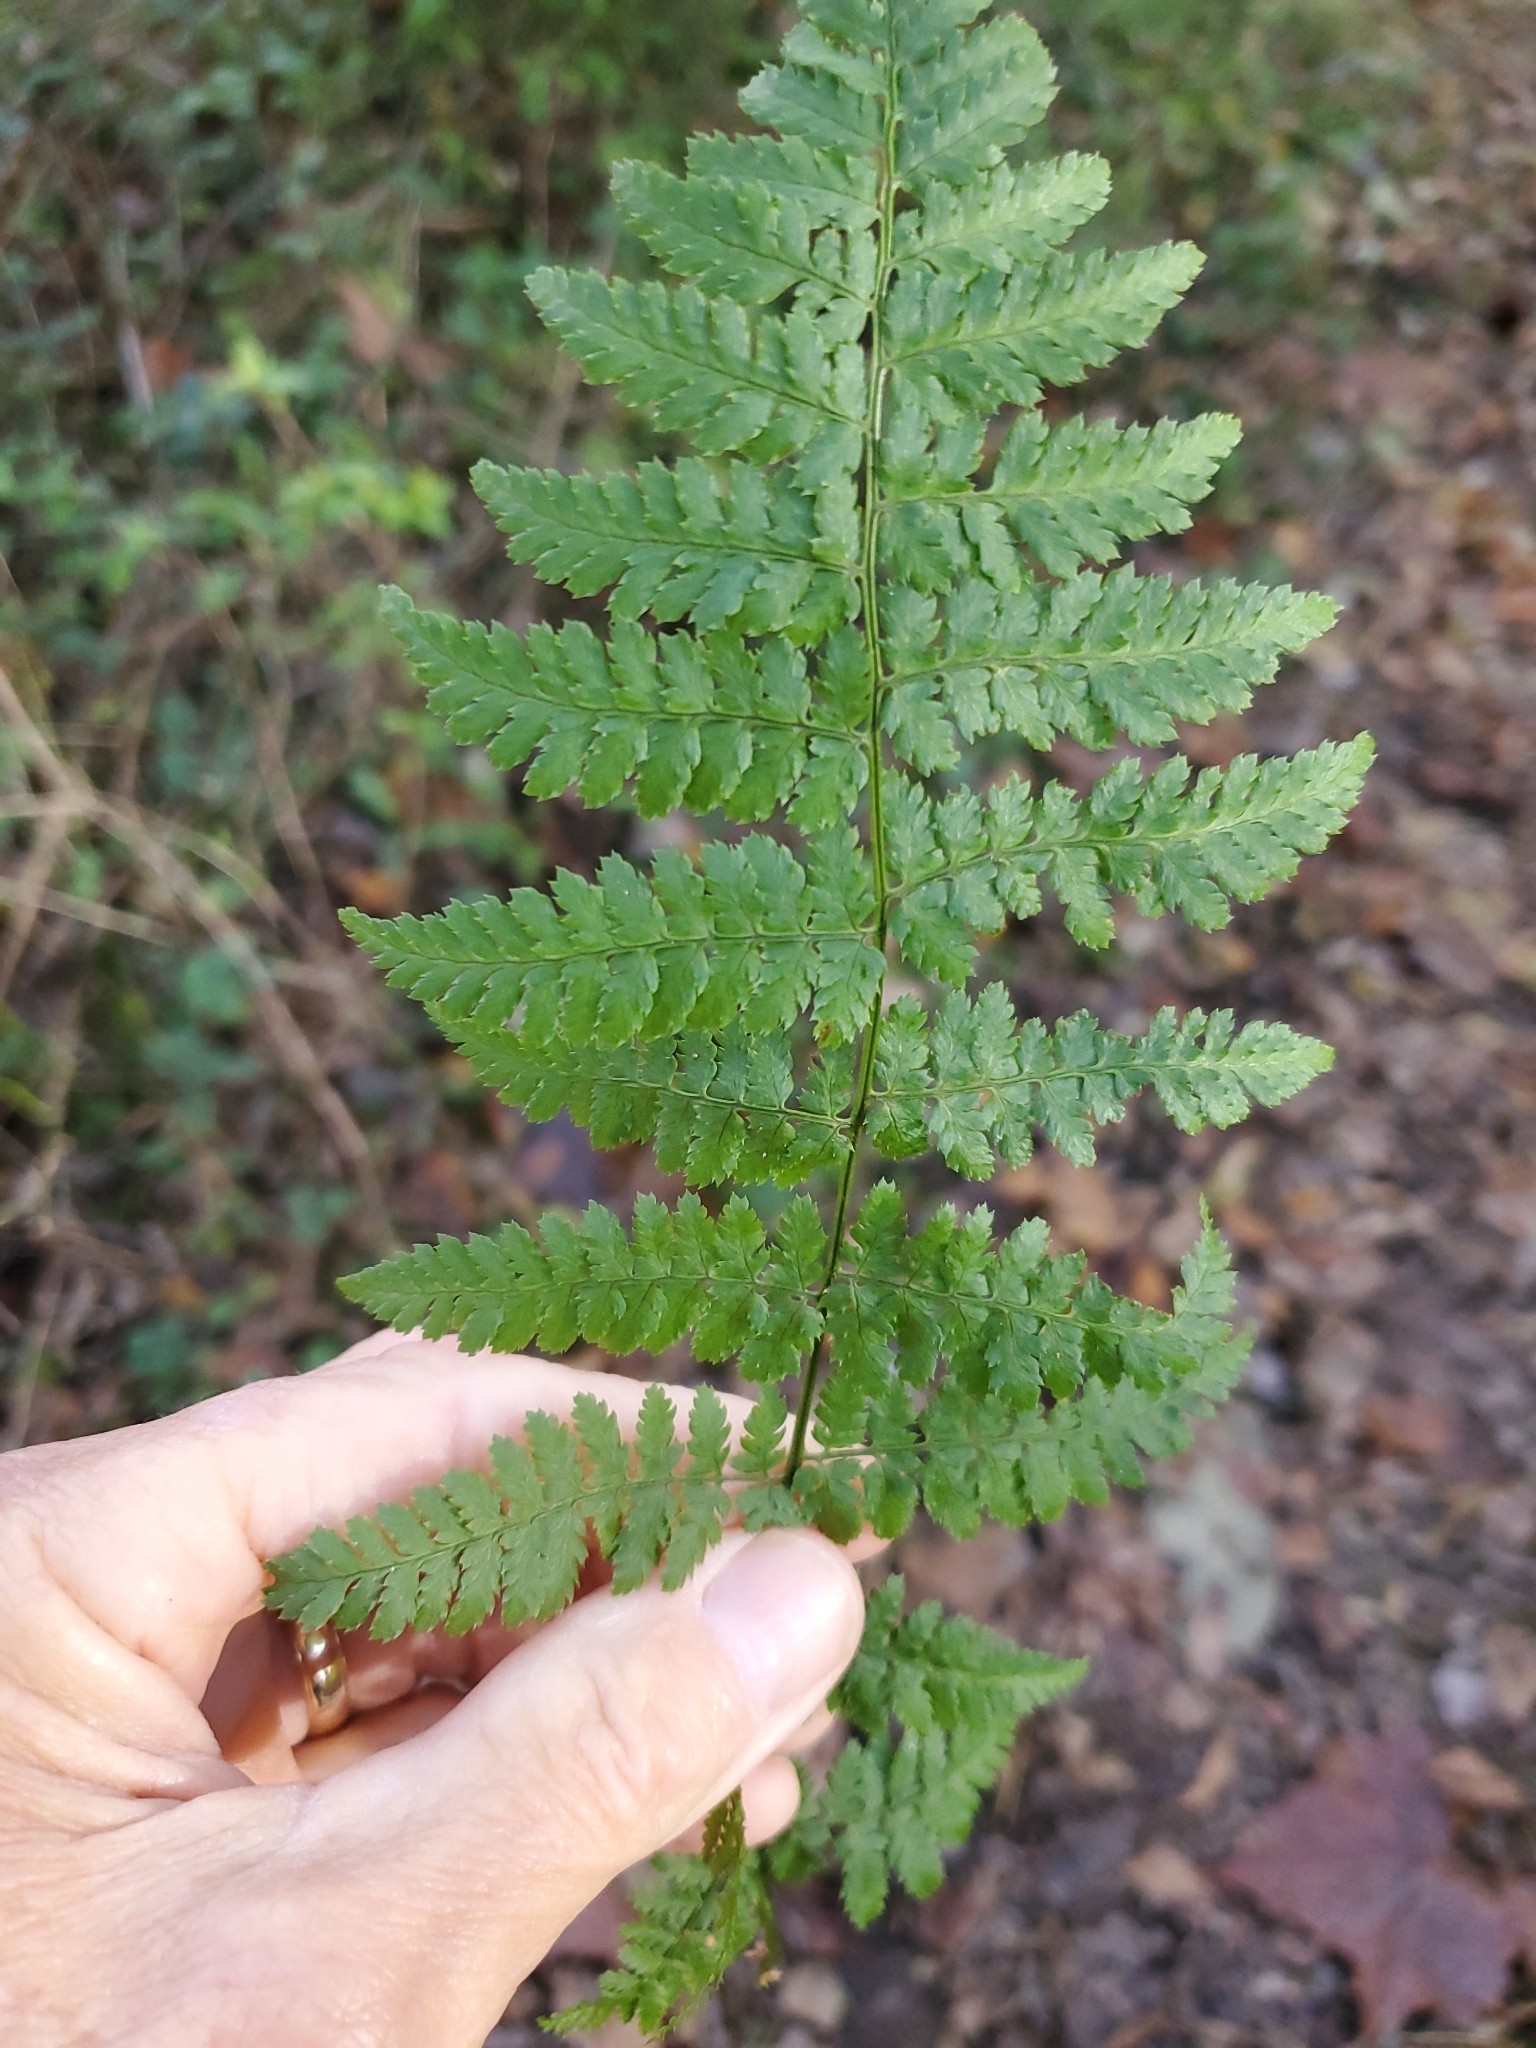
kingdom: Plantae
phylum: Tracheophyta
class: Polypodiopsida
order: Polypodiales
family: Dryopteridaceae
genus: Dryopteris
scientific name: Dryopteris intermedia
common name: Evergreen wood fern
